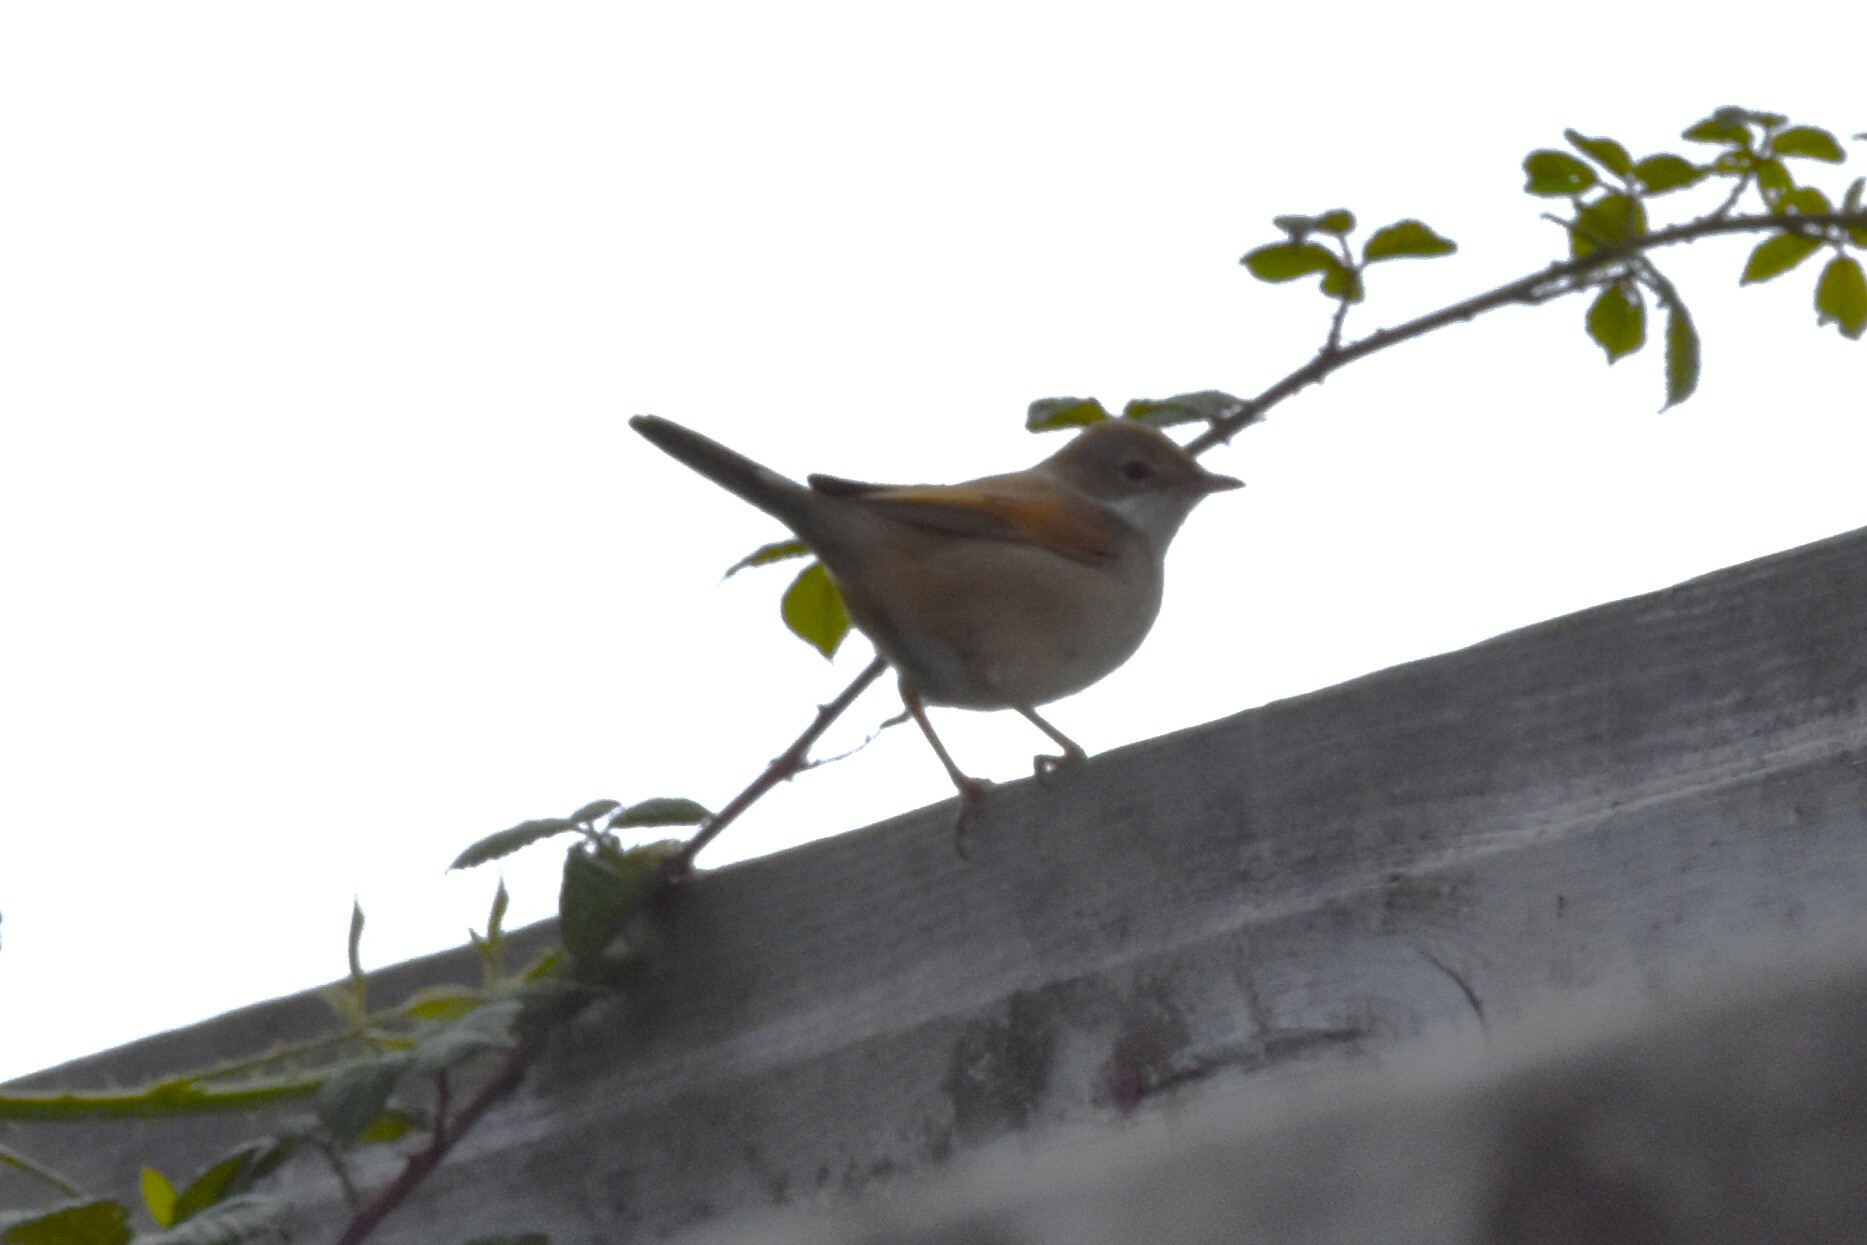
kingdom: Animalia
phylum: Chordata
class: Aves
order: Passeriformes
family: Sylviidae
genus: Sylvia
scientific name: Sylvia communis
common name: Common whitethroat
